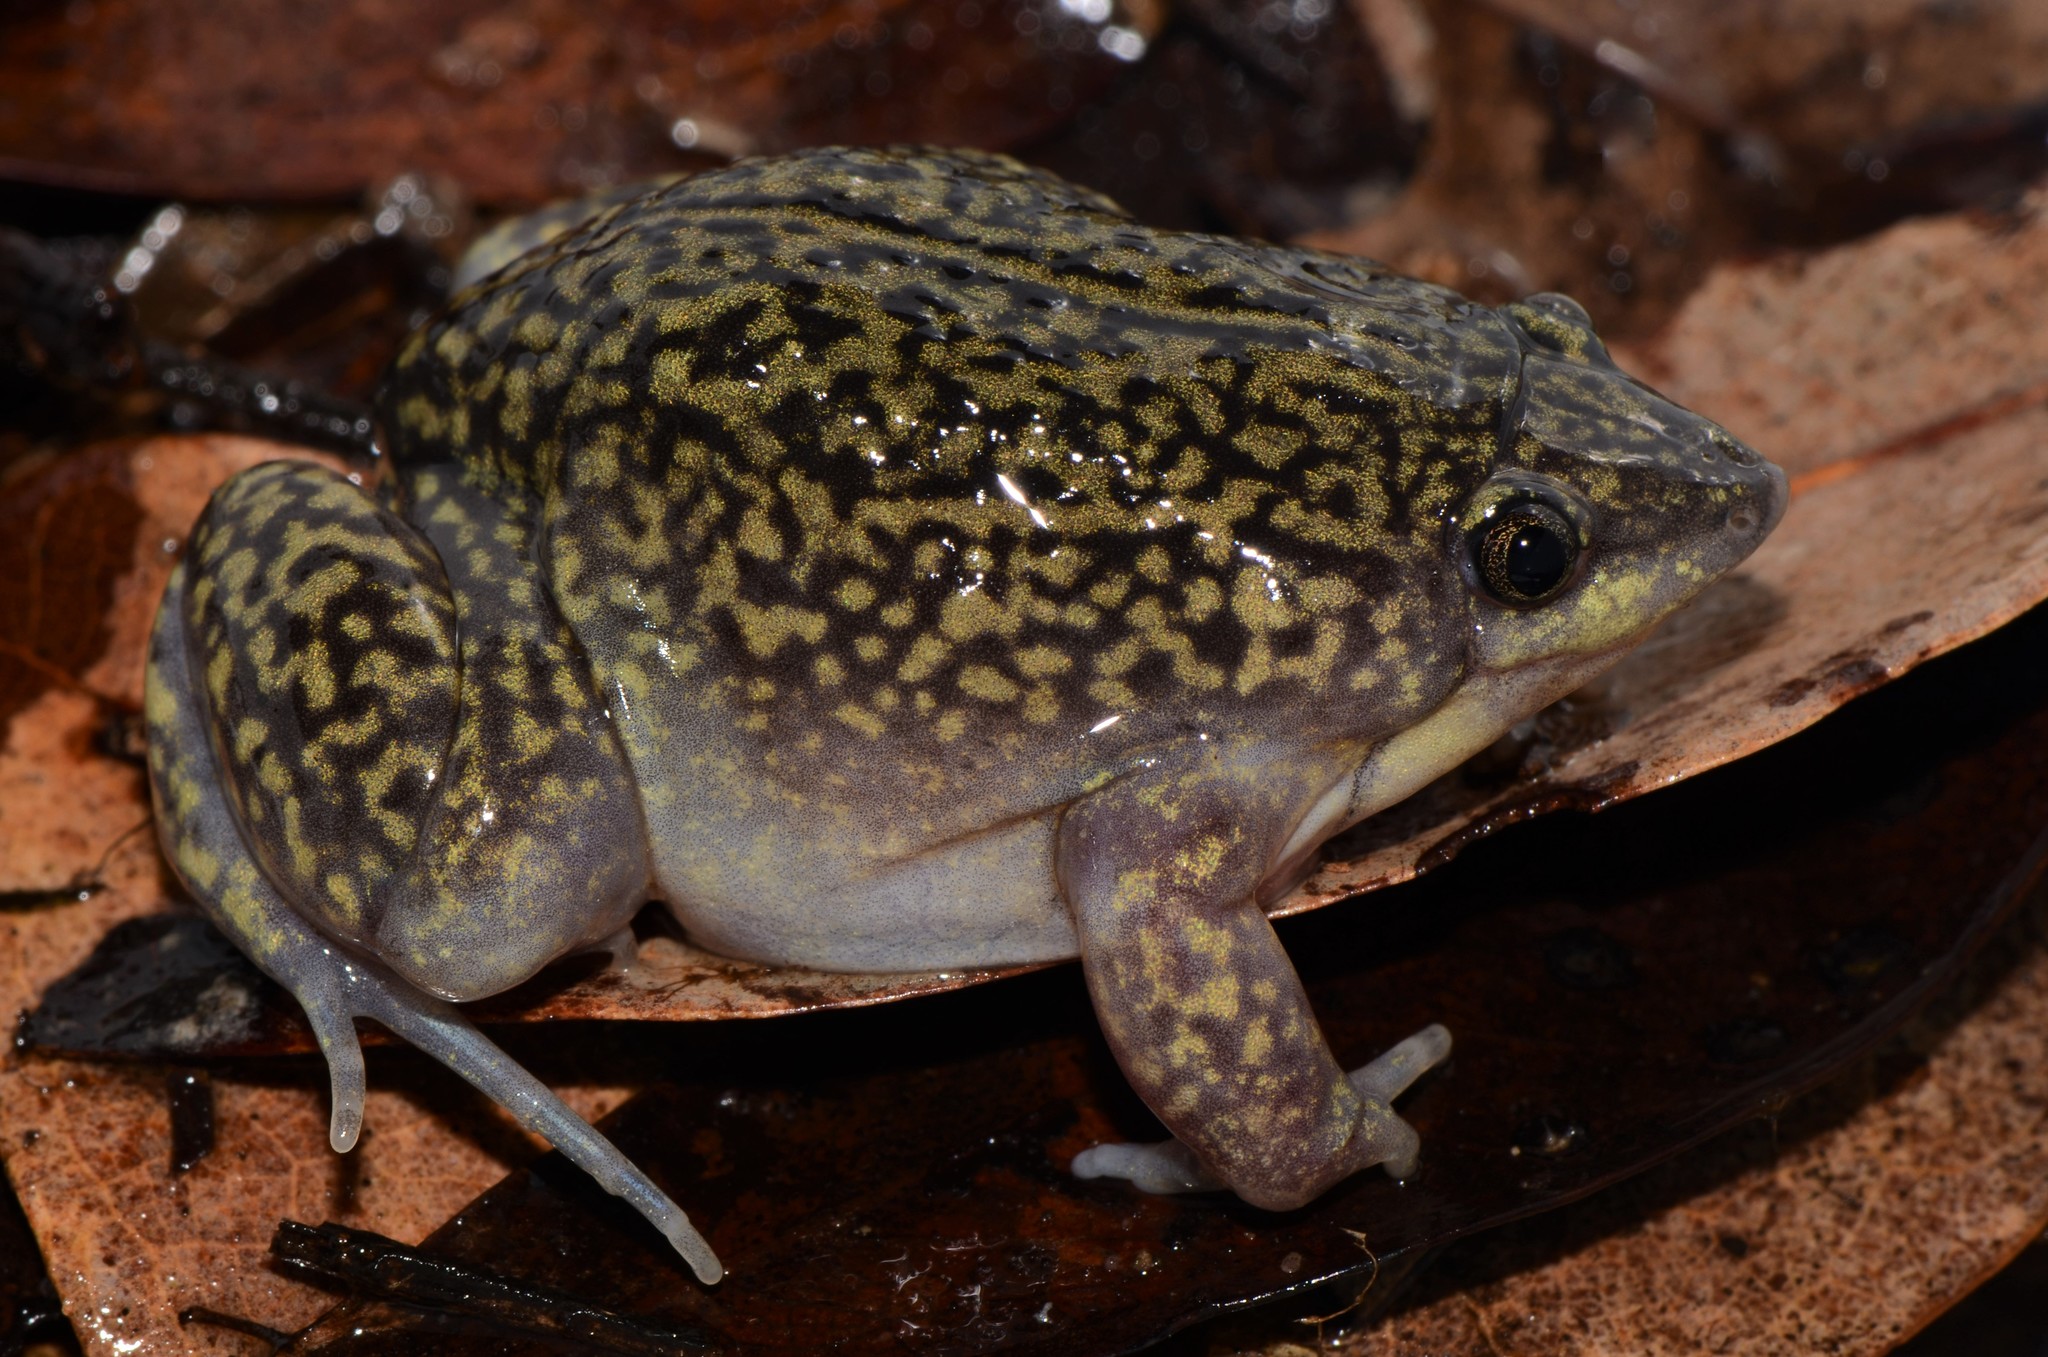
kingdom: Animalia
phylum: Chordata
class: Amphibia
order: Anura
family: Hemisotidae
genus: Hemisus
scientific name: Hemisus marmoratus
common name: Mottled shovel-nosed frog
